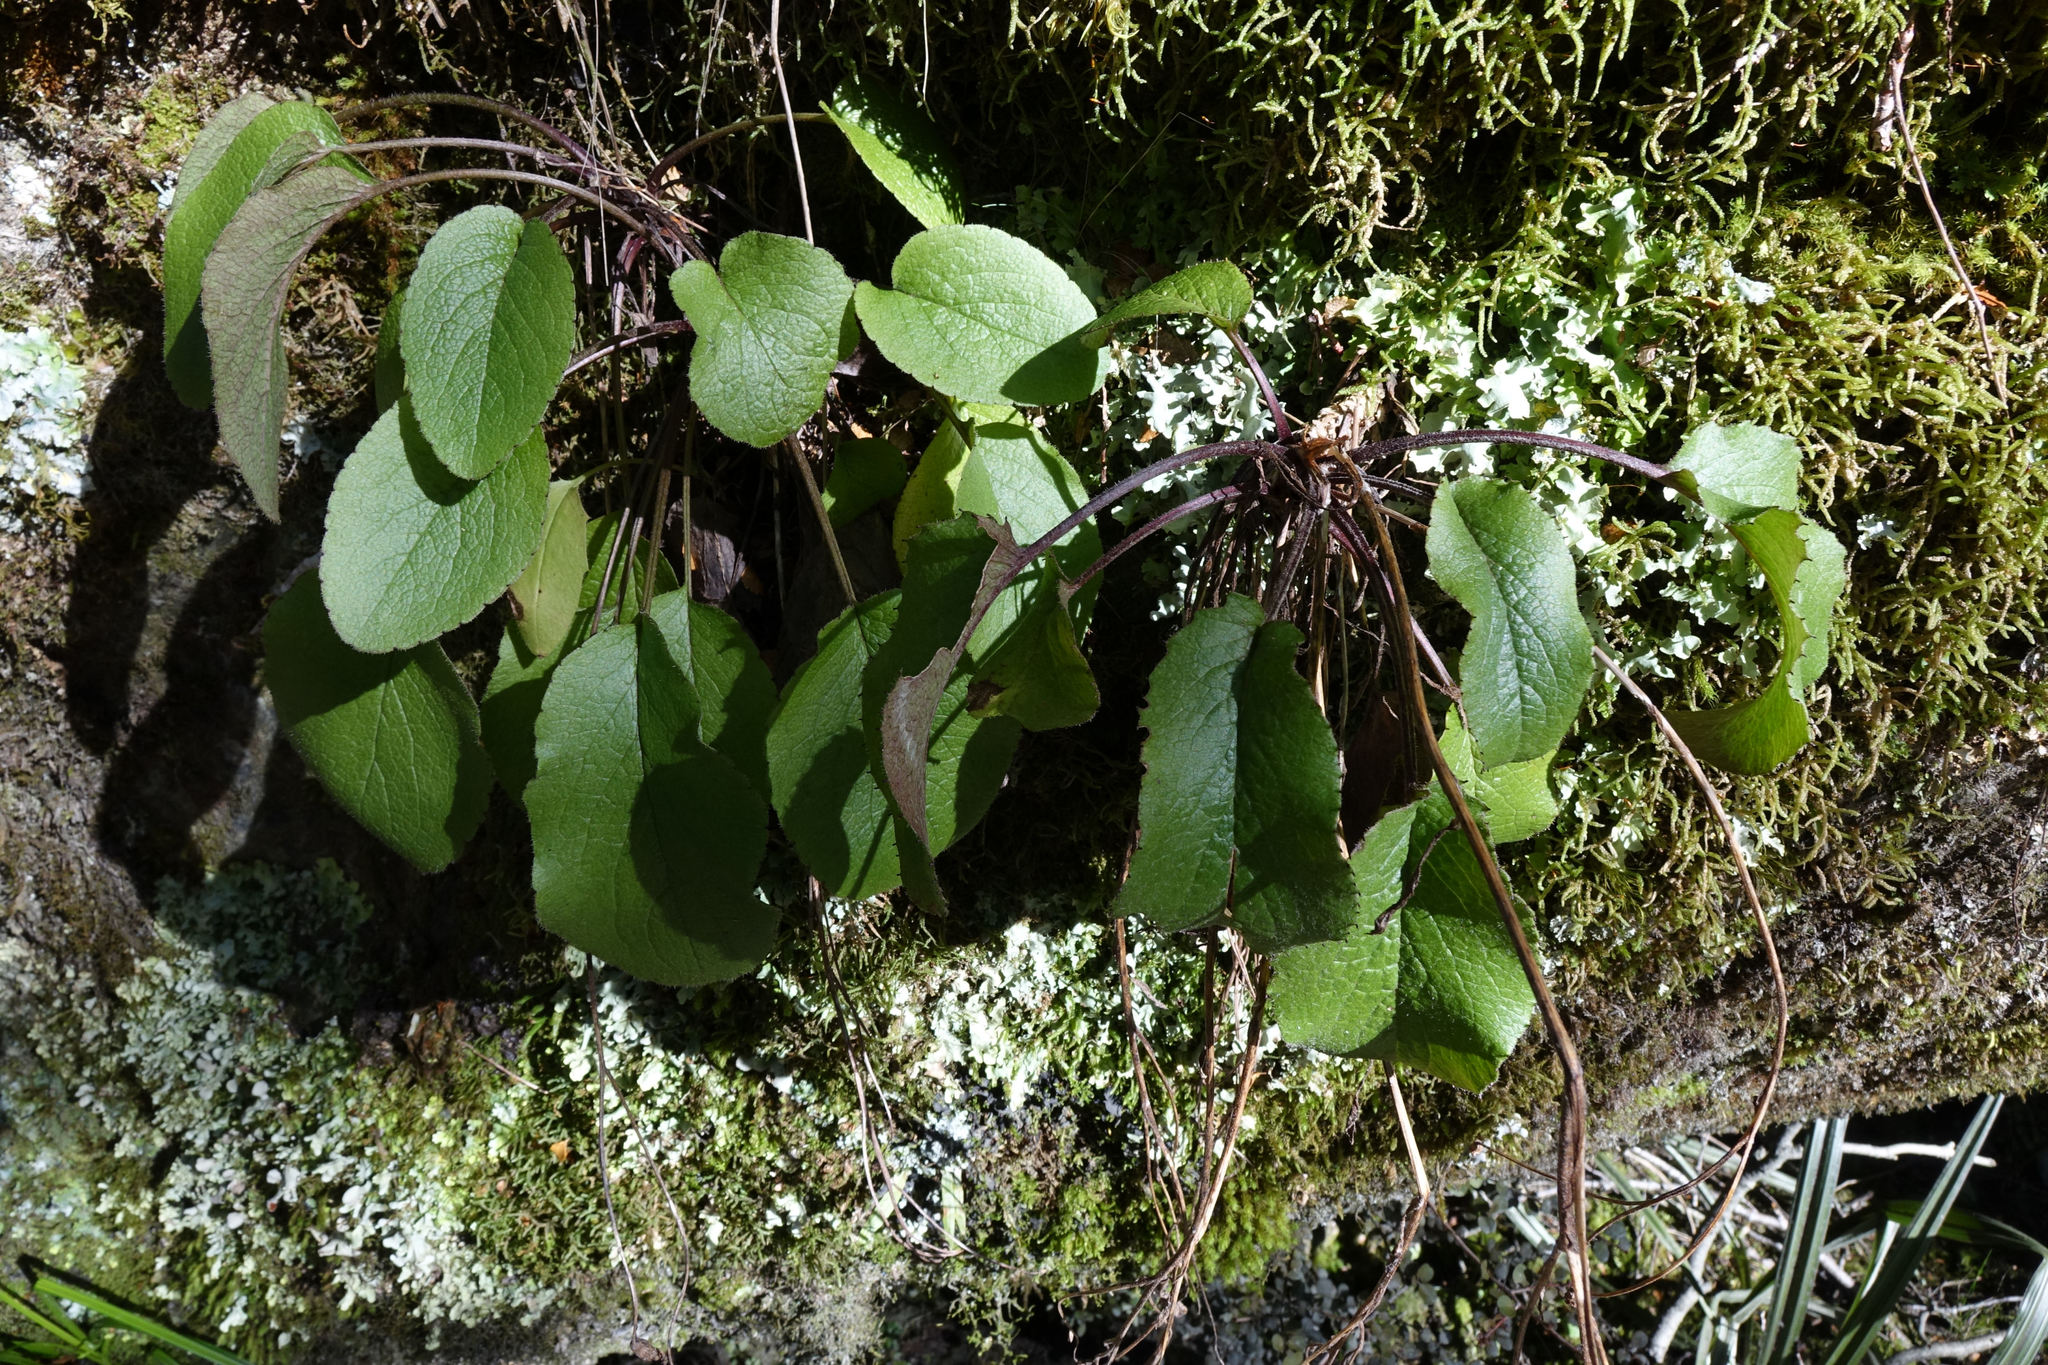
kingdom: Plantae
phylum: Tracheophyta
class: Magnoliopsida
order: Asterales
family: Asteraceae
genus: Brachyglottis
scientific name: Brachyglottis southlandica
